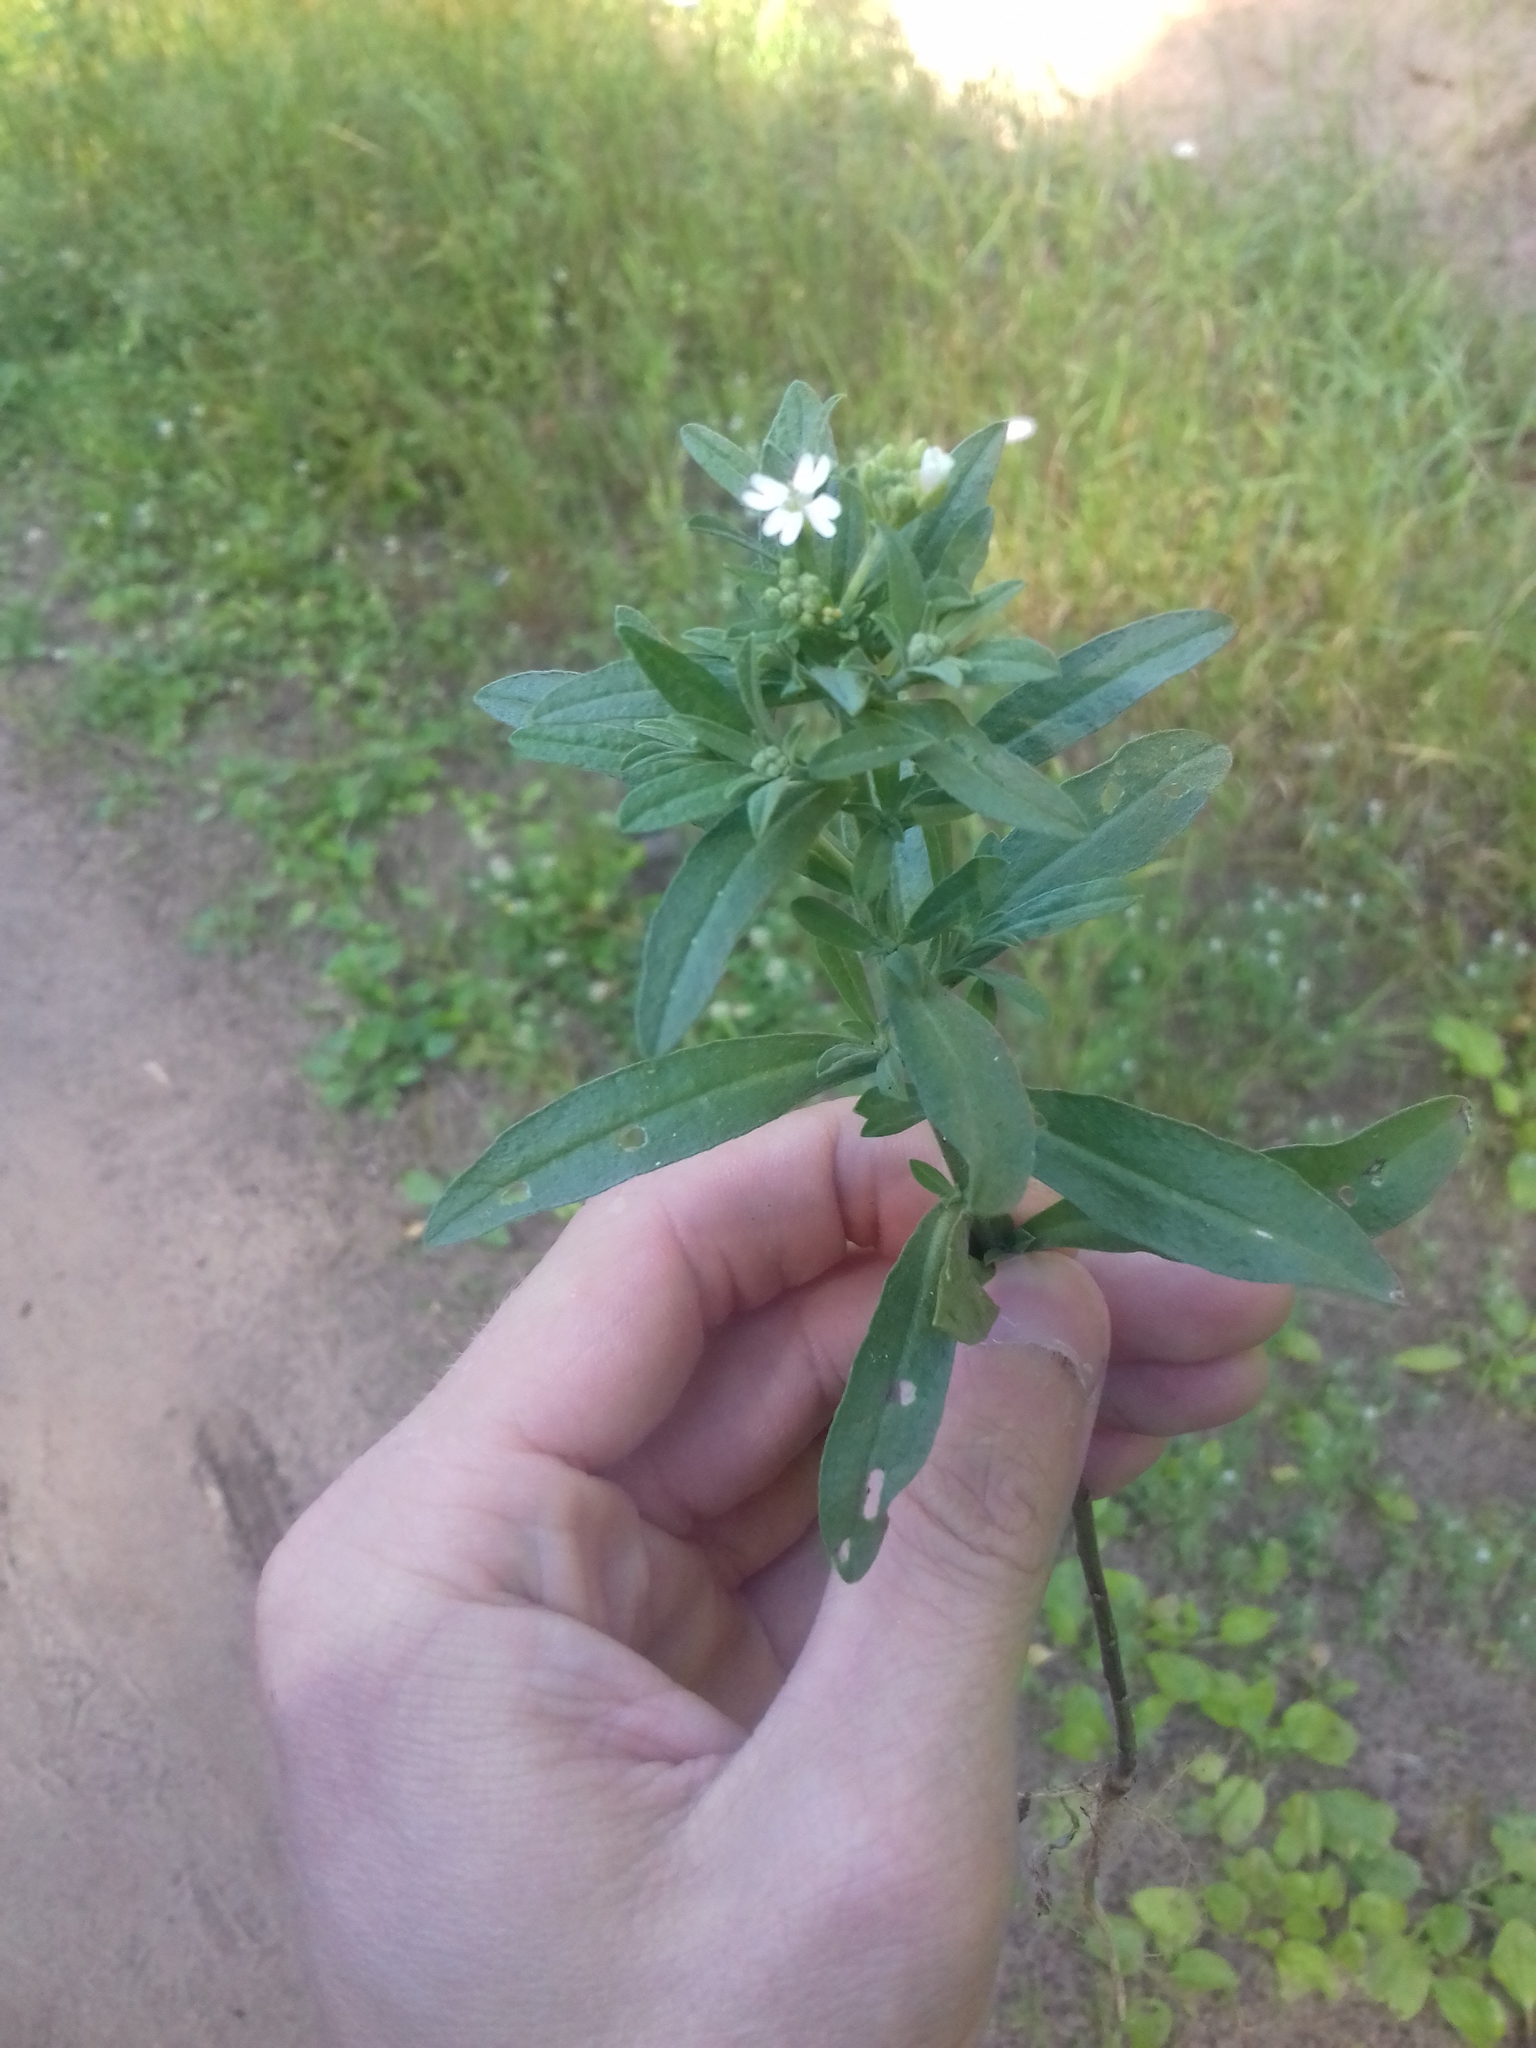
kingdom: Plantae
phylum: Tracheophyta
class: Magnoliopsida
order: Brassicales
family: Brassicaceae
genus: Berteroa
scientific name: Berteroa incana
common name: Hoary alison
